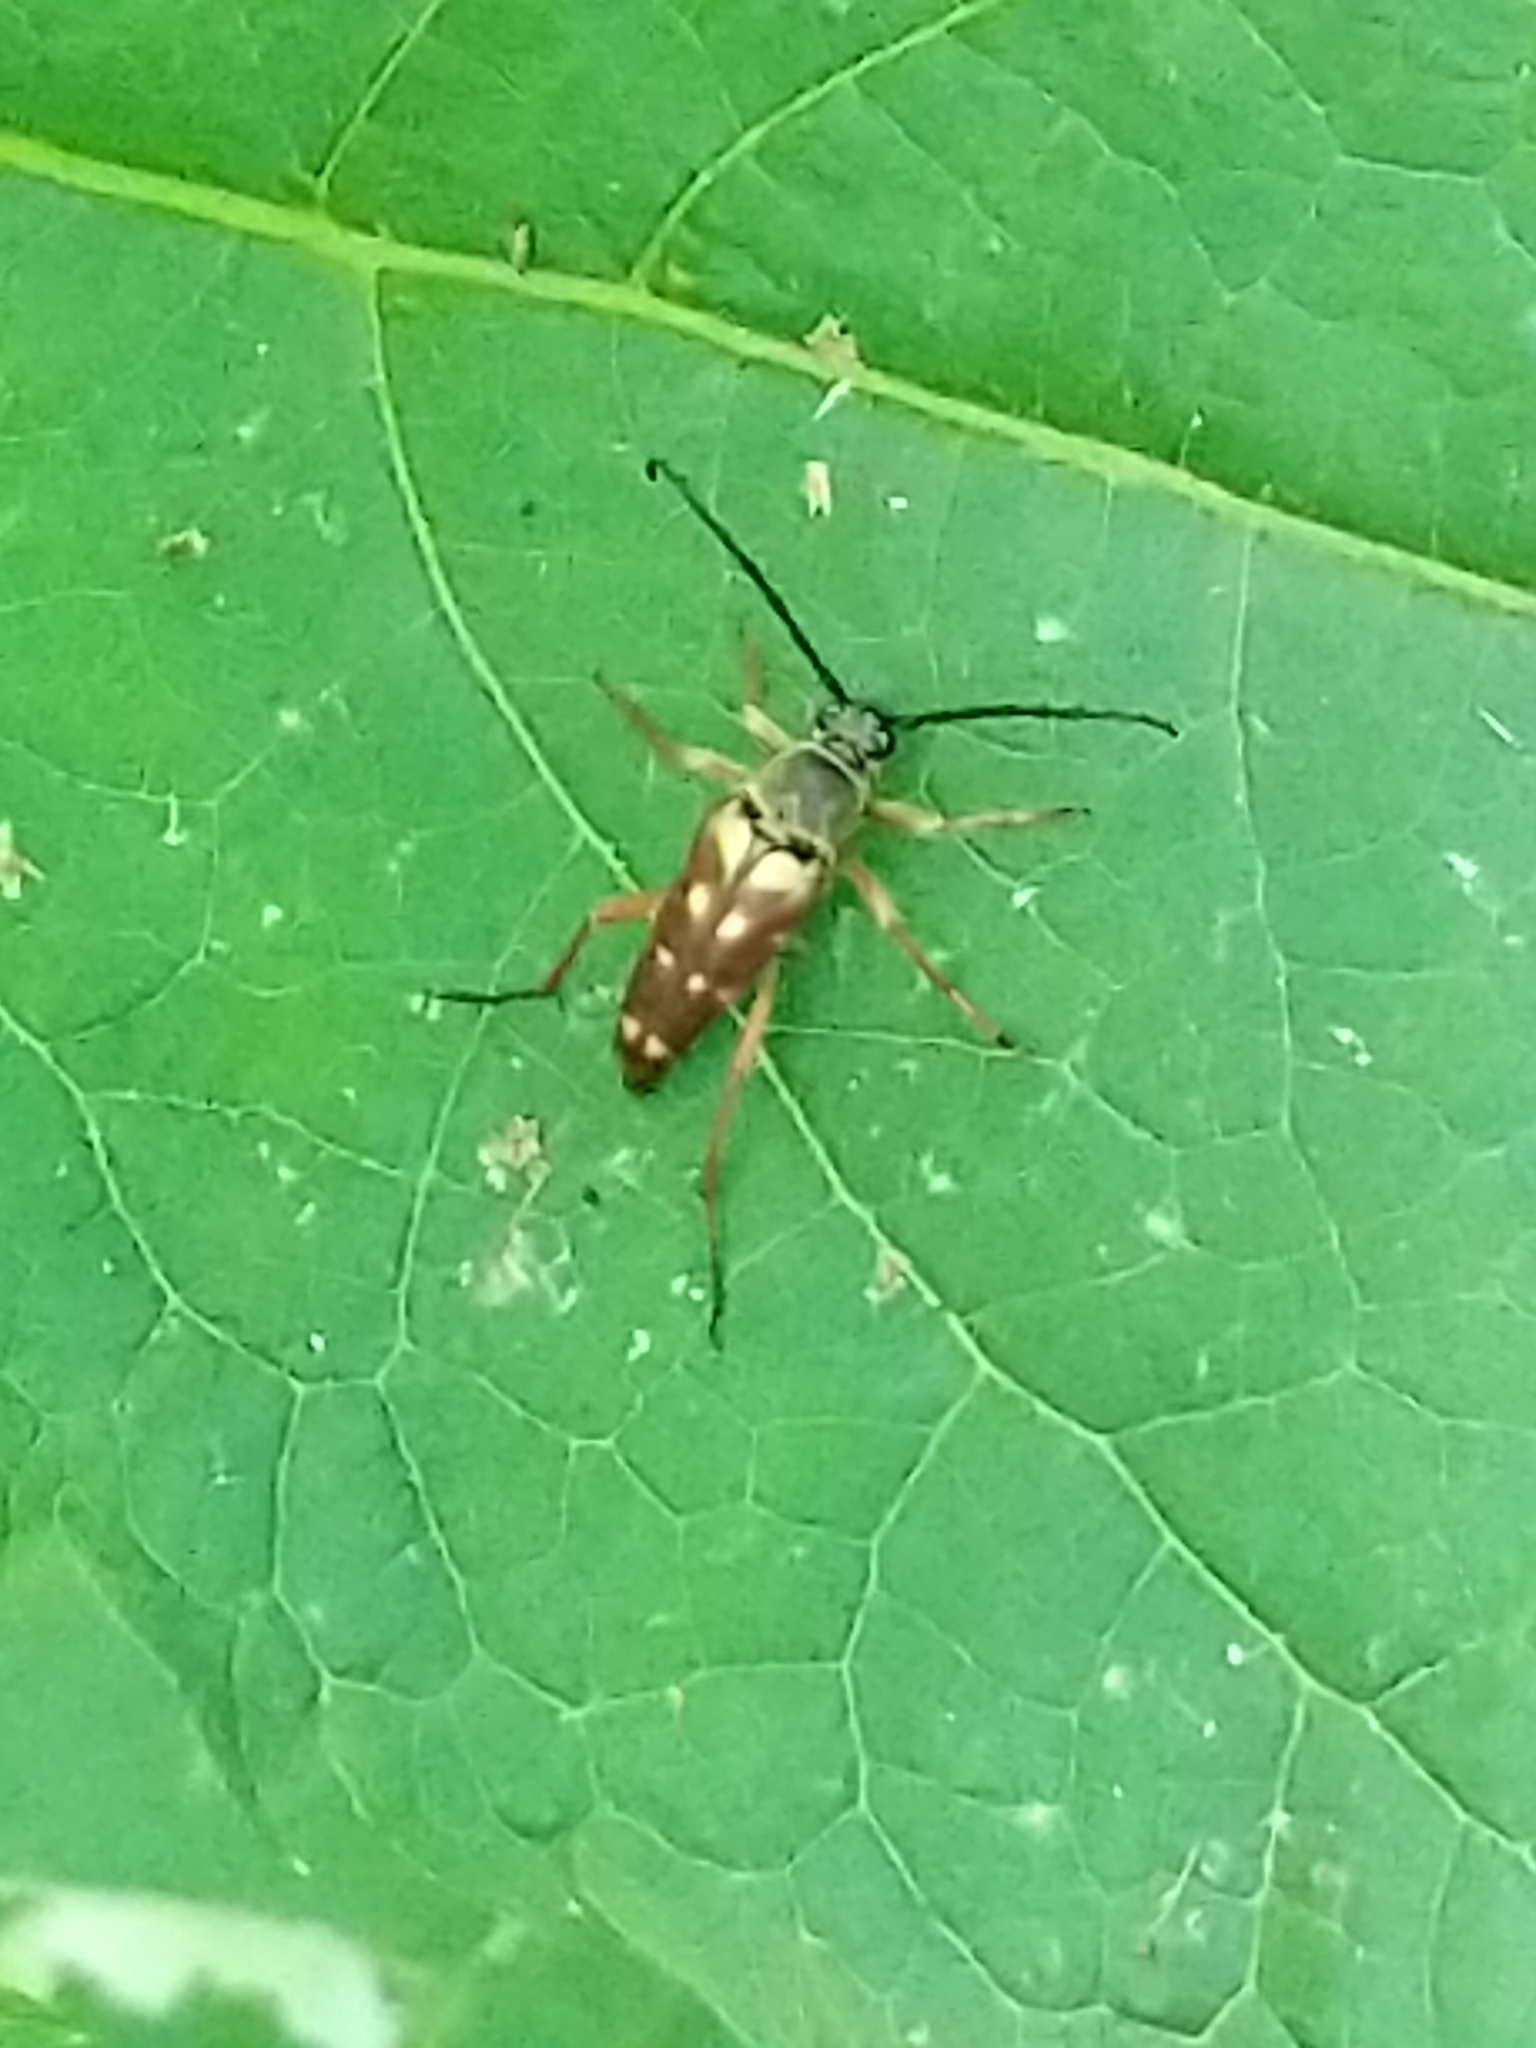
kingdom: Animalia
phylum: Arthropoda
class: Insecta
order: Coleoptera
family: Cerambycidae
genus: Typocerus
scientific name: Typocerus velutinus
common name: Banded longhorn beetle
